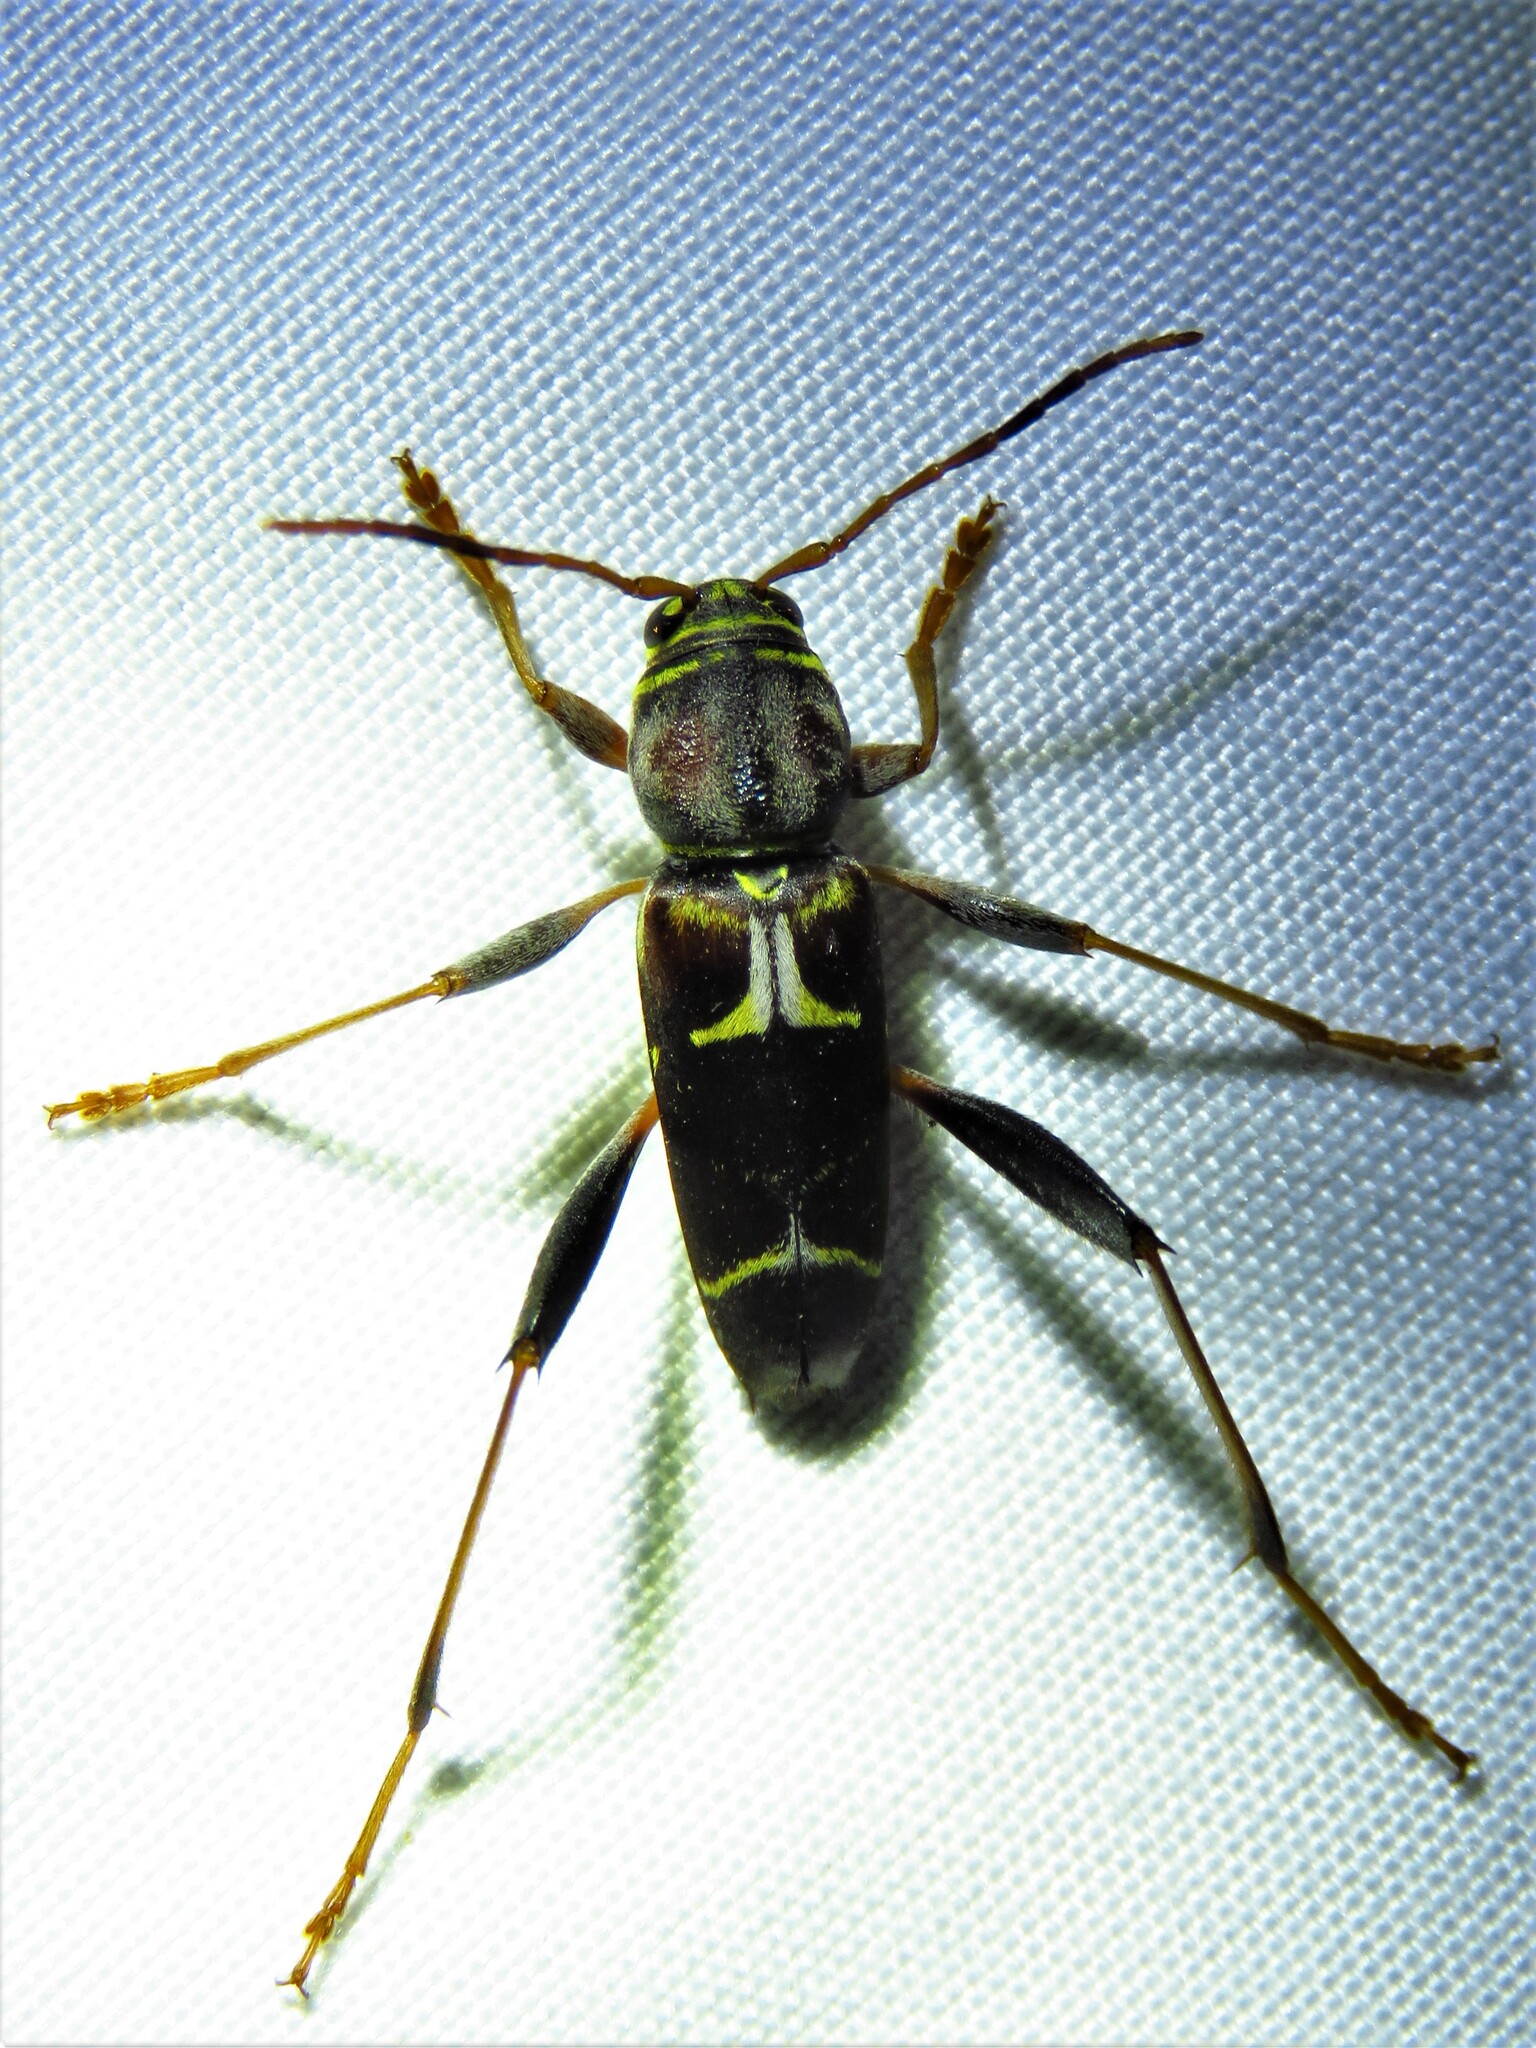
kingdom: Animalia
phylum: Arthropoda
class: Insecta
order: Coleoptera
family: Cerambycidae
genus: Neoclytus
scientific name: Neoclytus mucronatus
